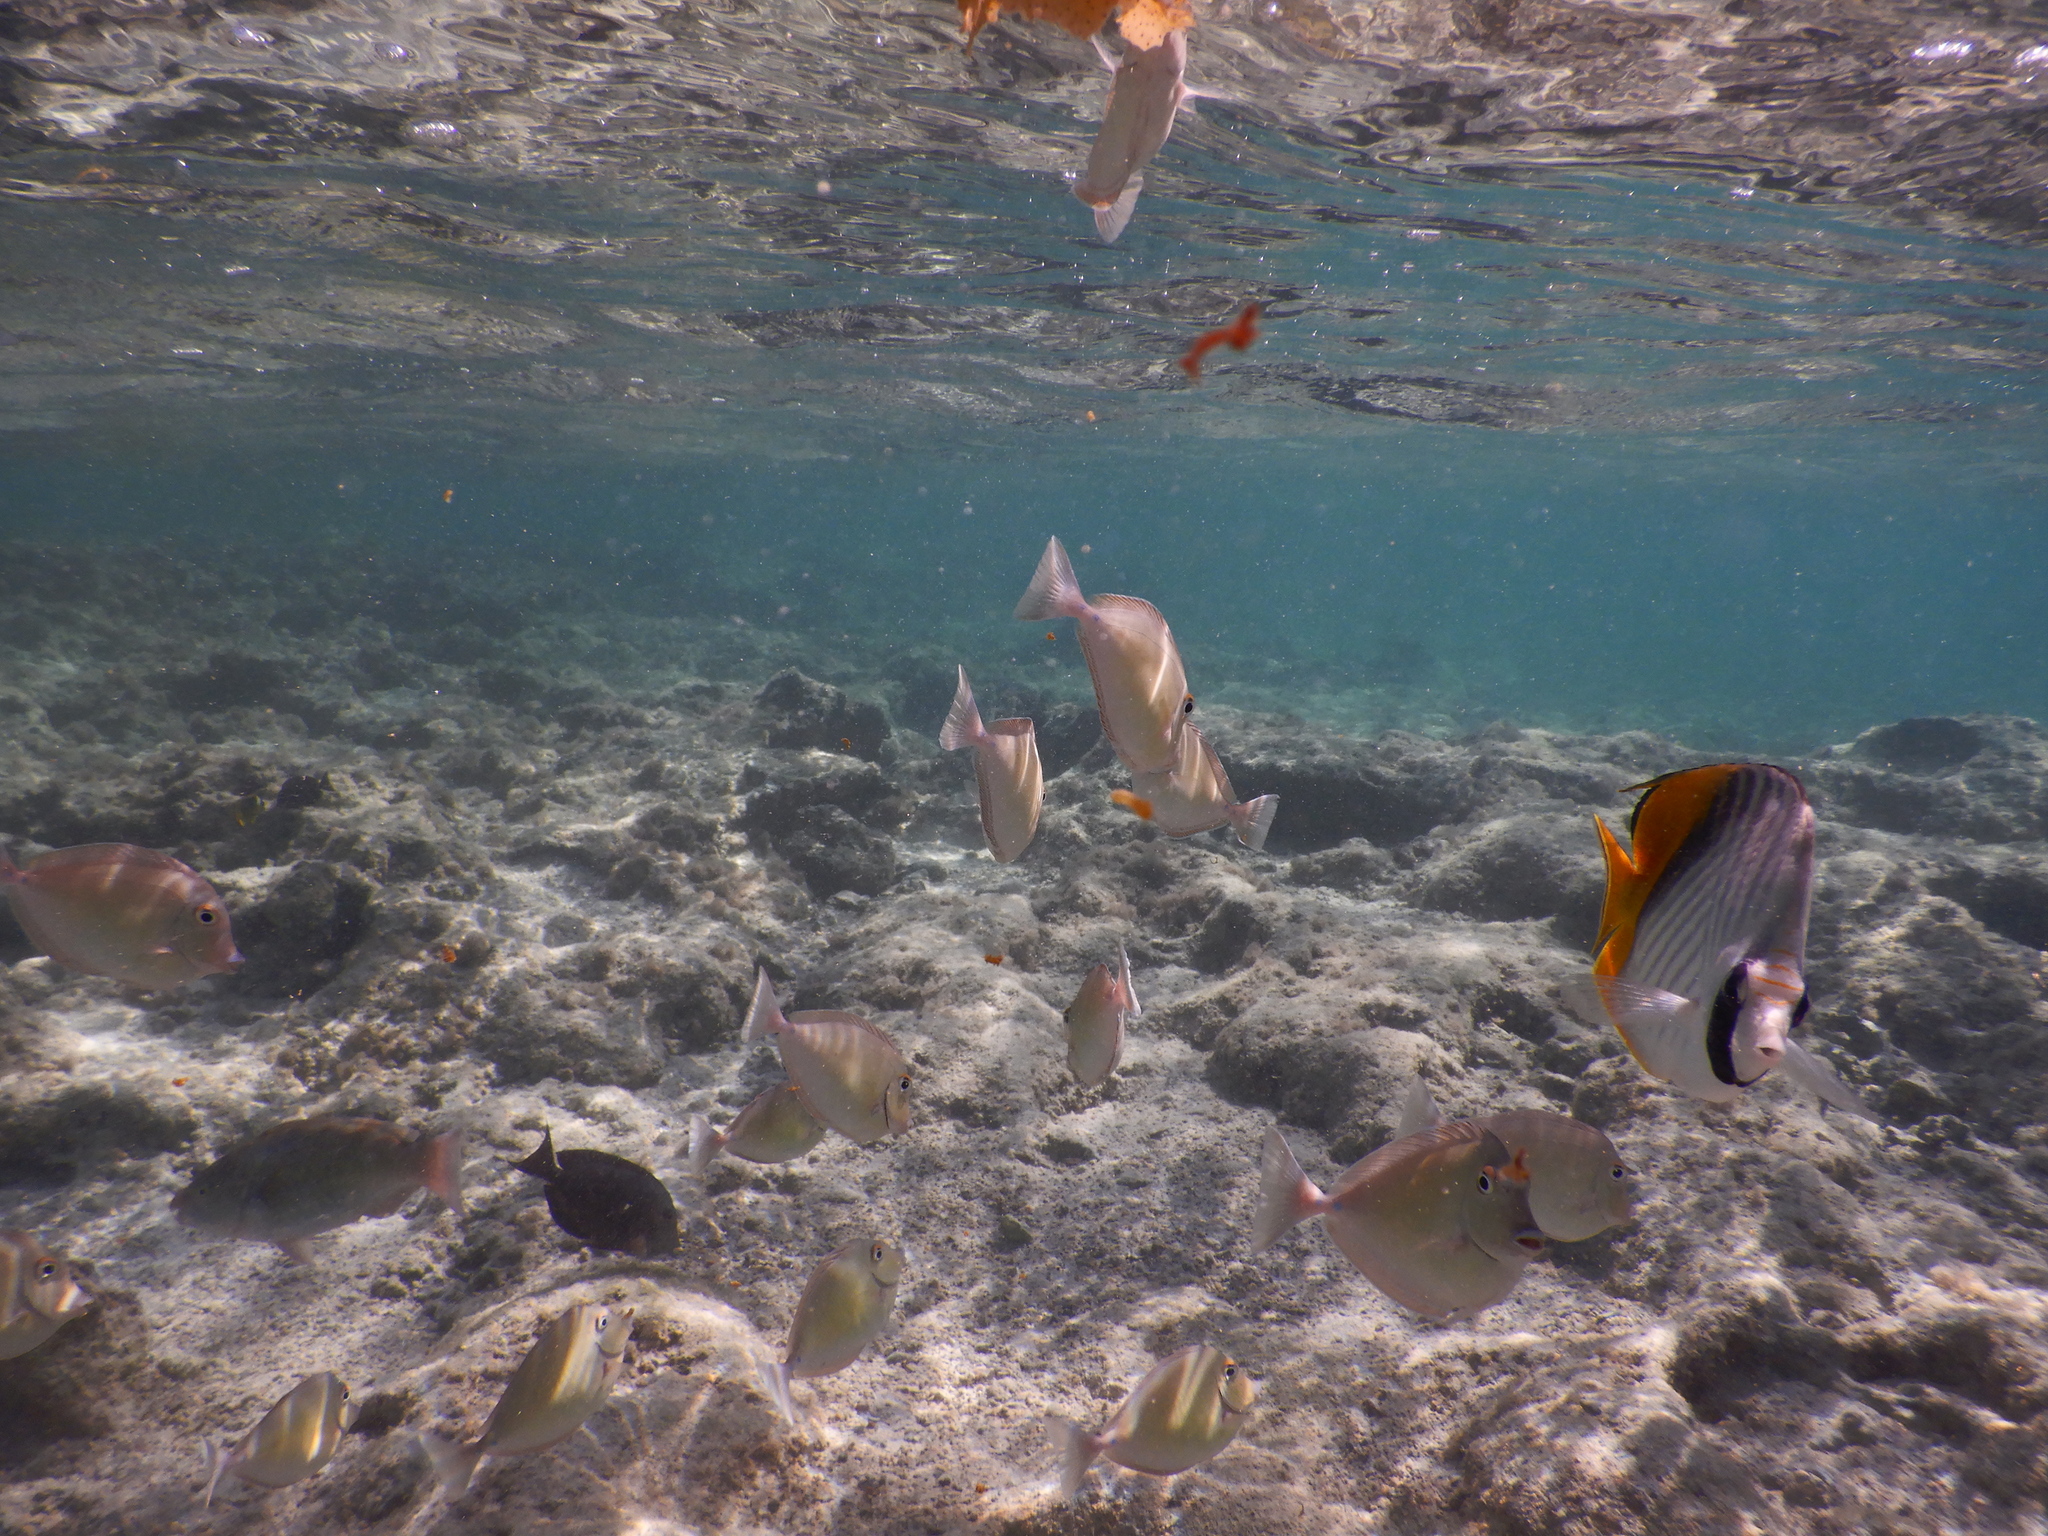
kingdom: Animalia
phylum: Chordata
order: Perciformes
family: Chaetodontidae
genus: Chaetodon
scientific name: Chaetodon auriga
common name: Threadfin butterflyfish
